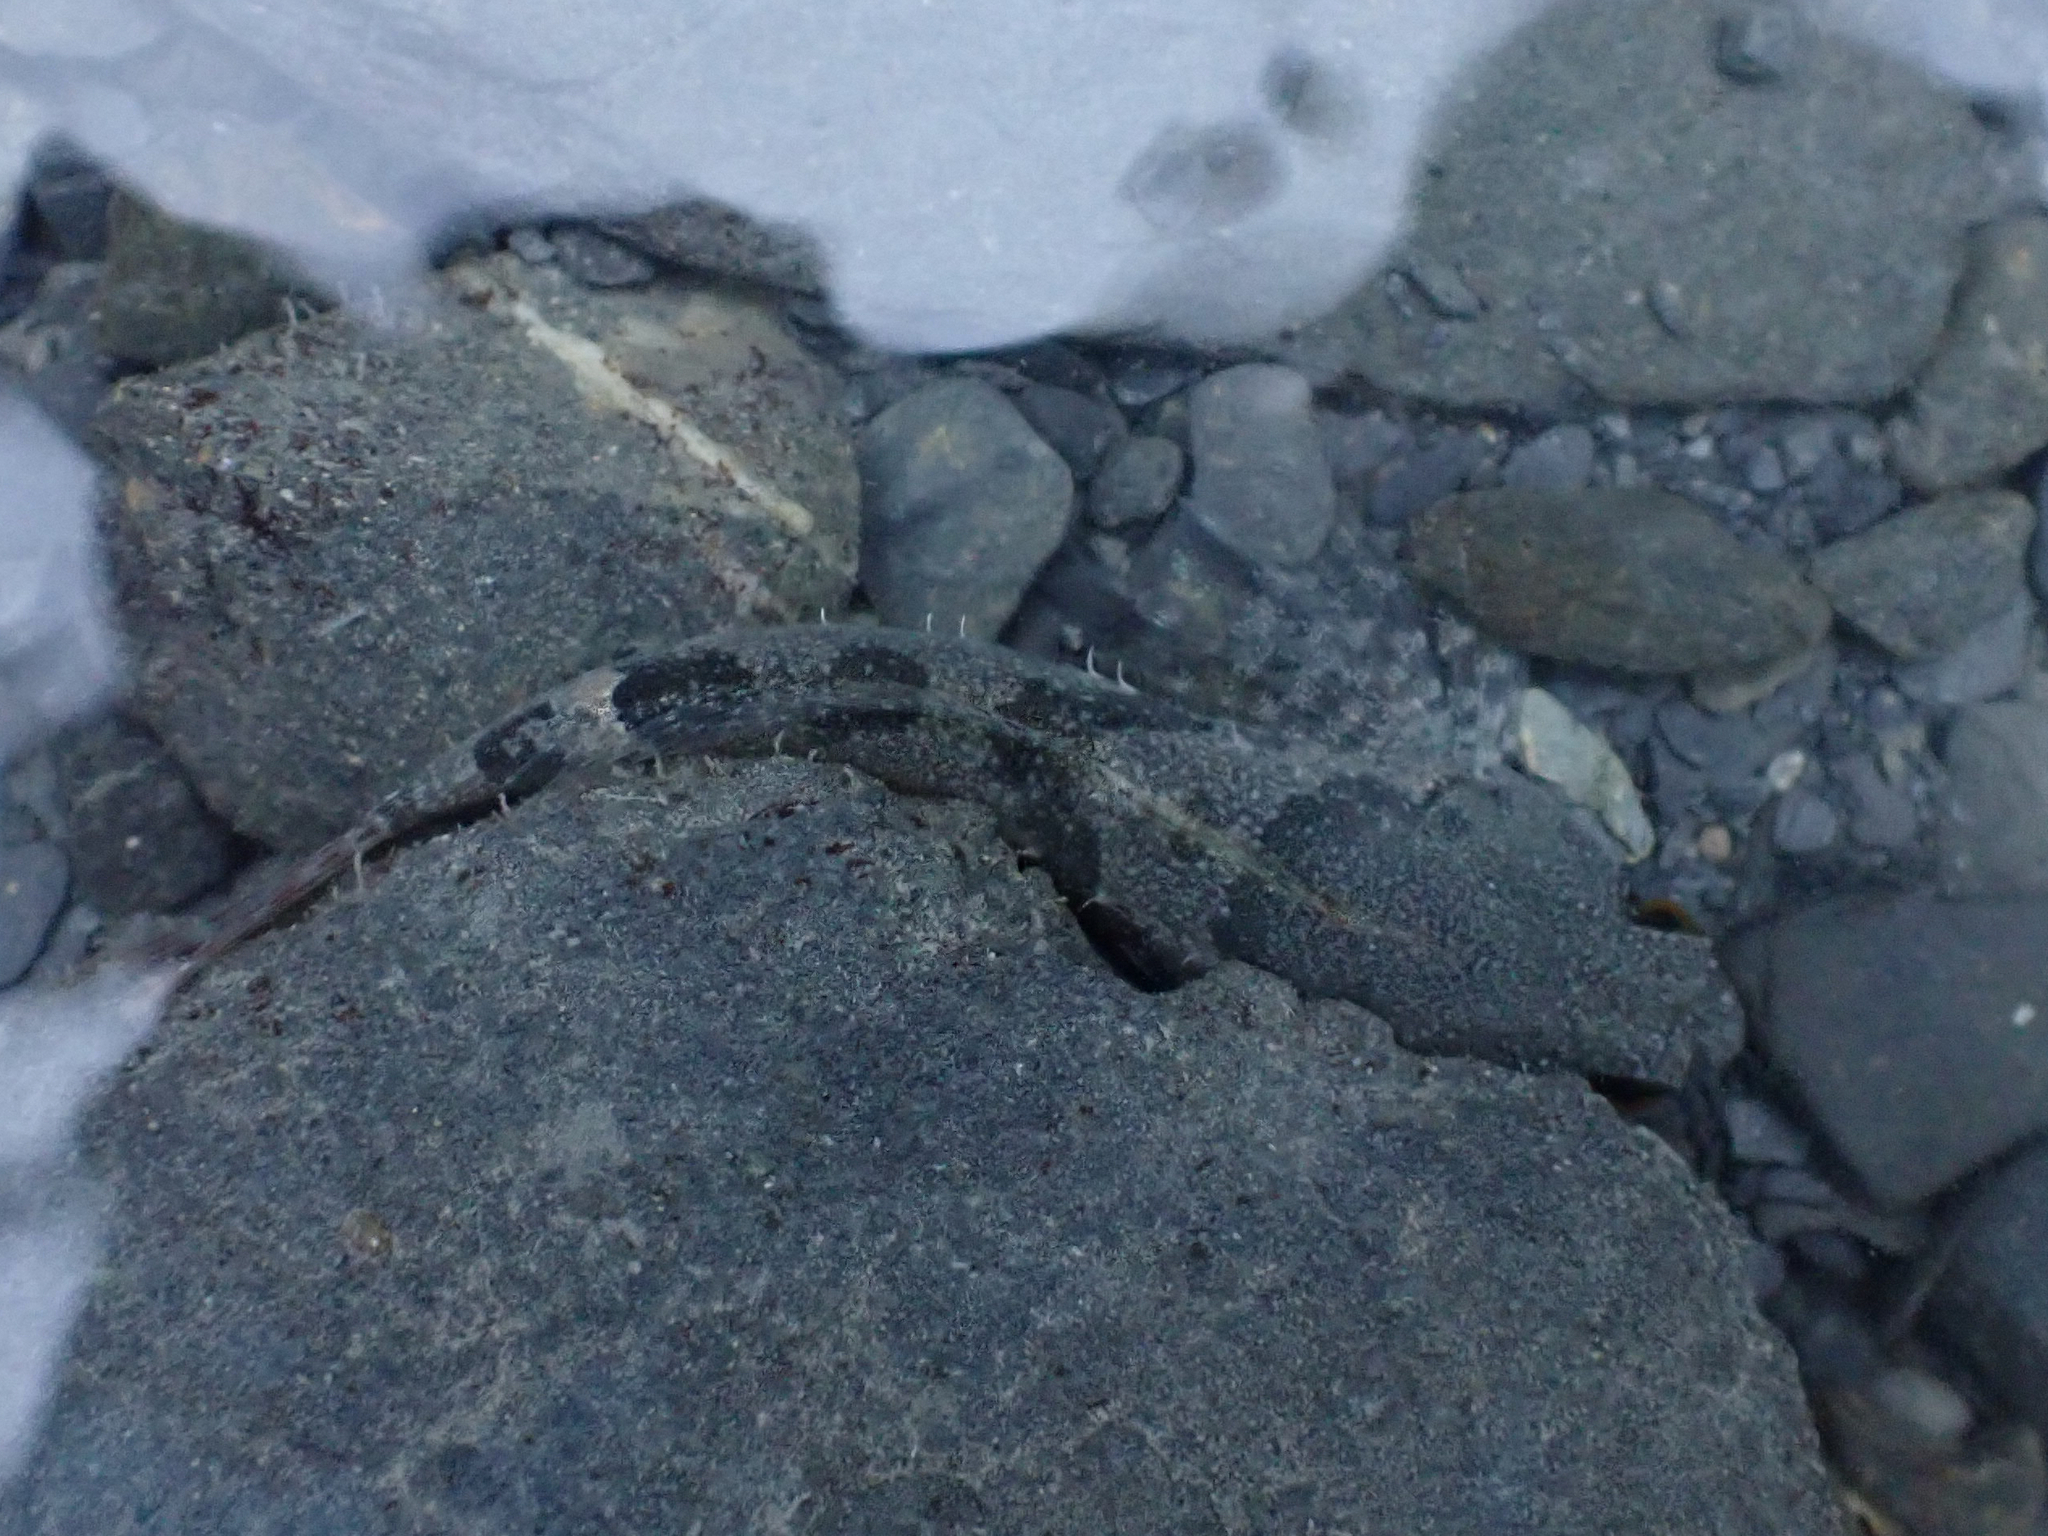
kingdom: Animalia
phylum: Chordata
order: Scorpaeniformes
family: Cottidae
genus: Oligocottus
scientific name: Oligocottus maculosus
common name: Tidepool sculpin
